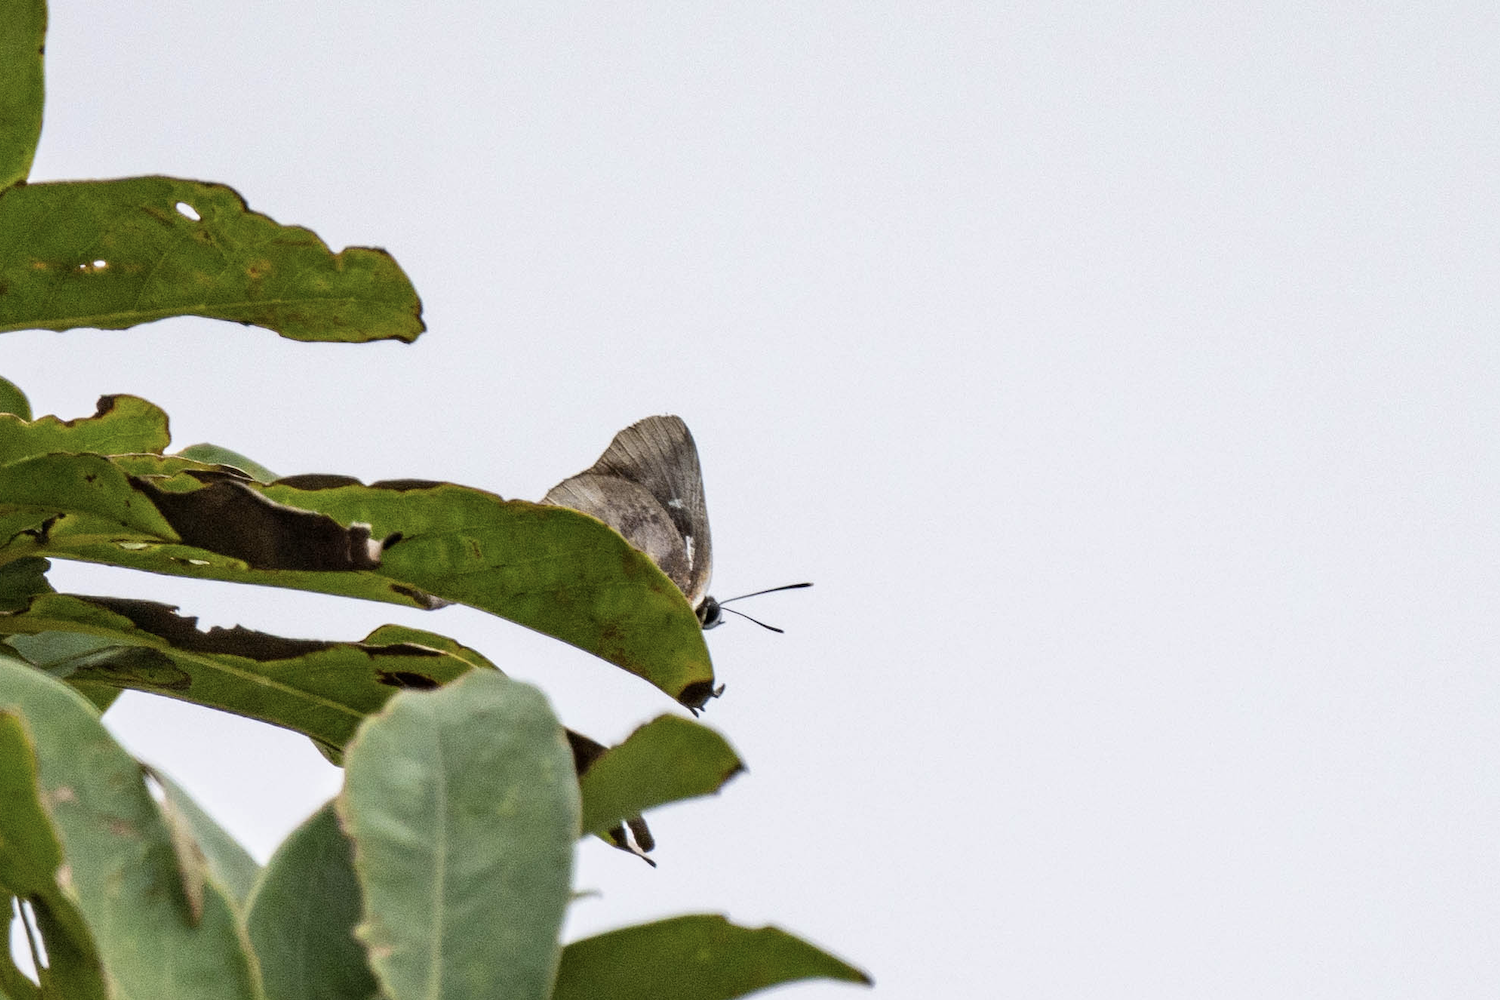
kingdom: Animalia
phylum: Arthropoda
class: Insecta
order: Lepidoptera
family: Lycaenidae
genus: Iraota
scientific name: Iraota timoleon
